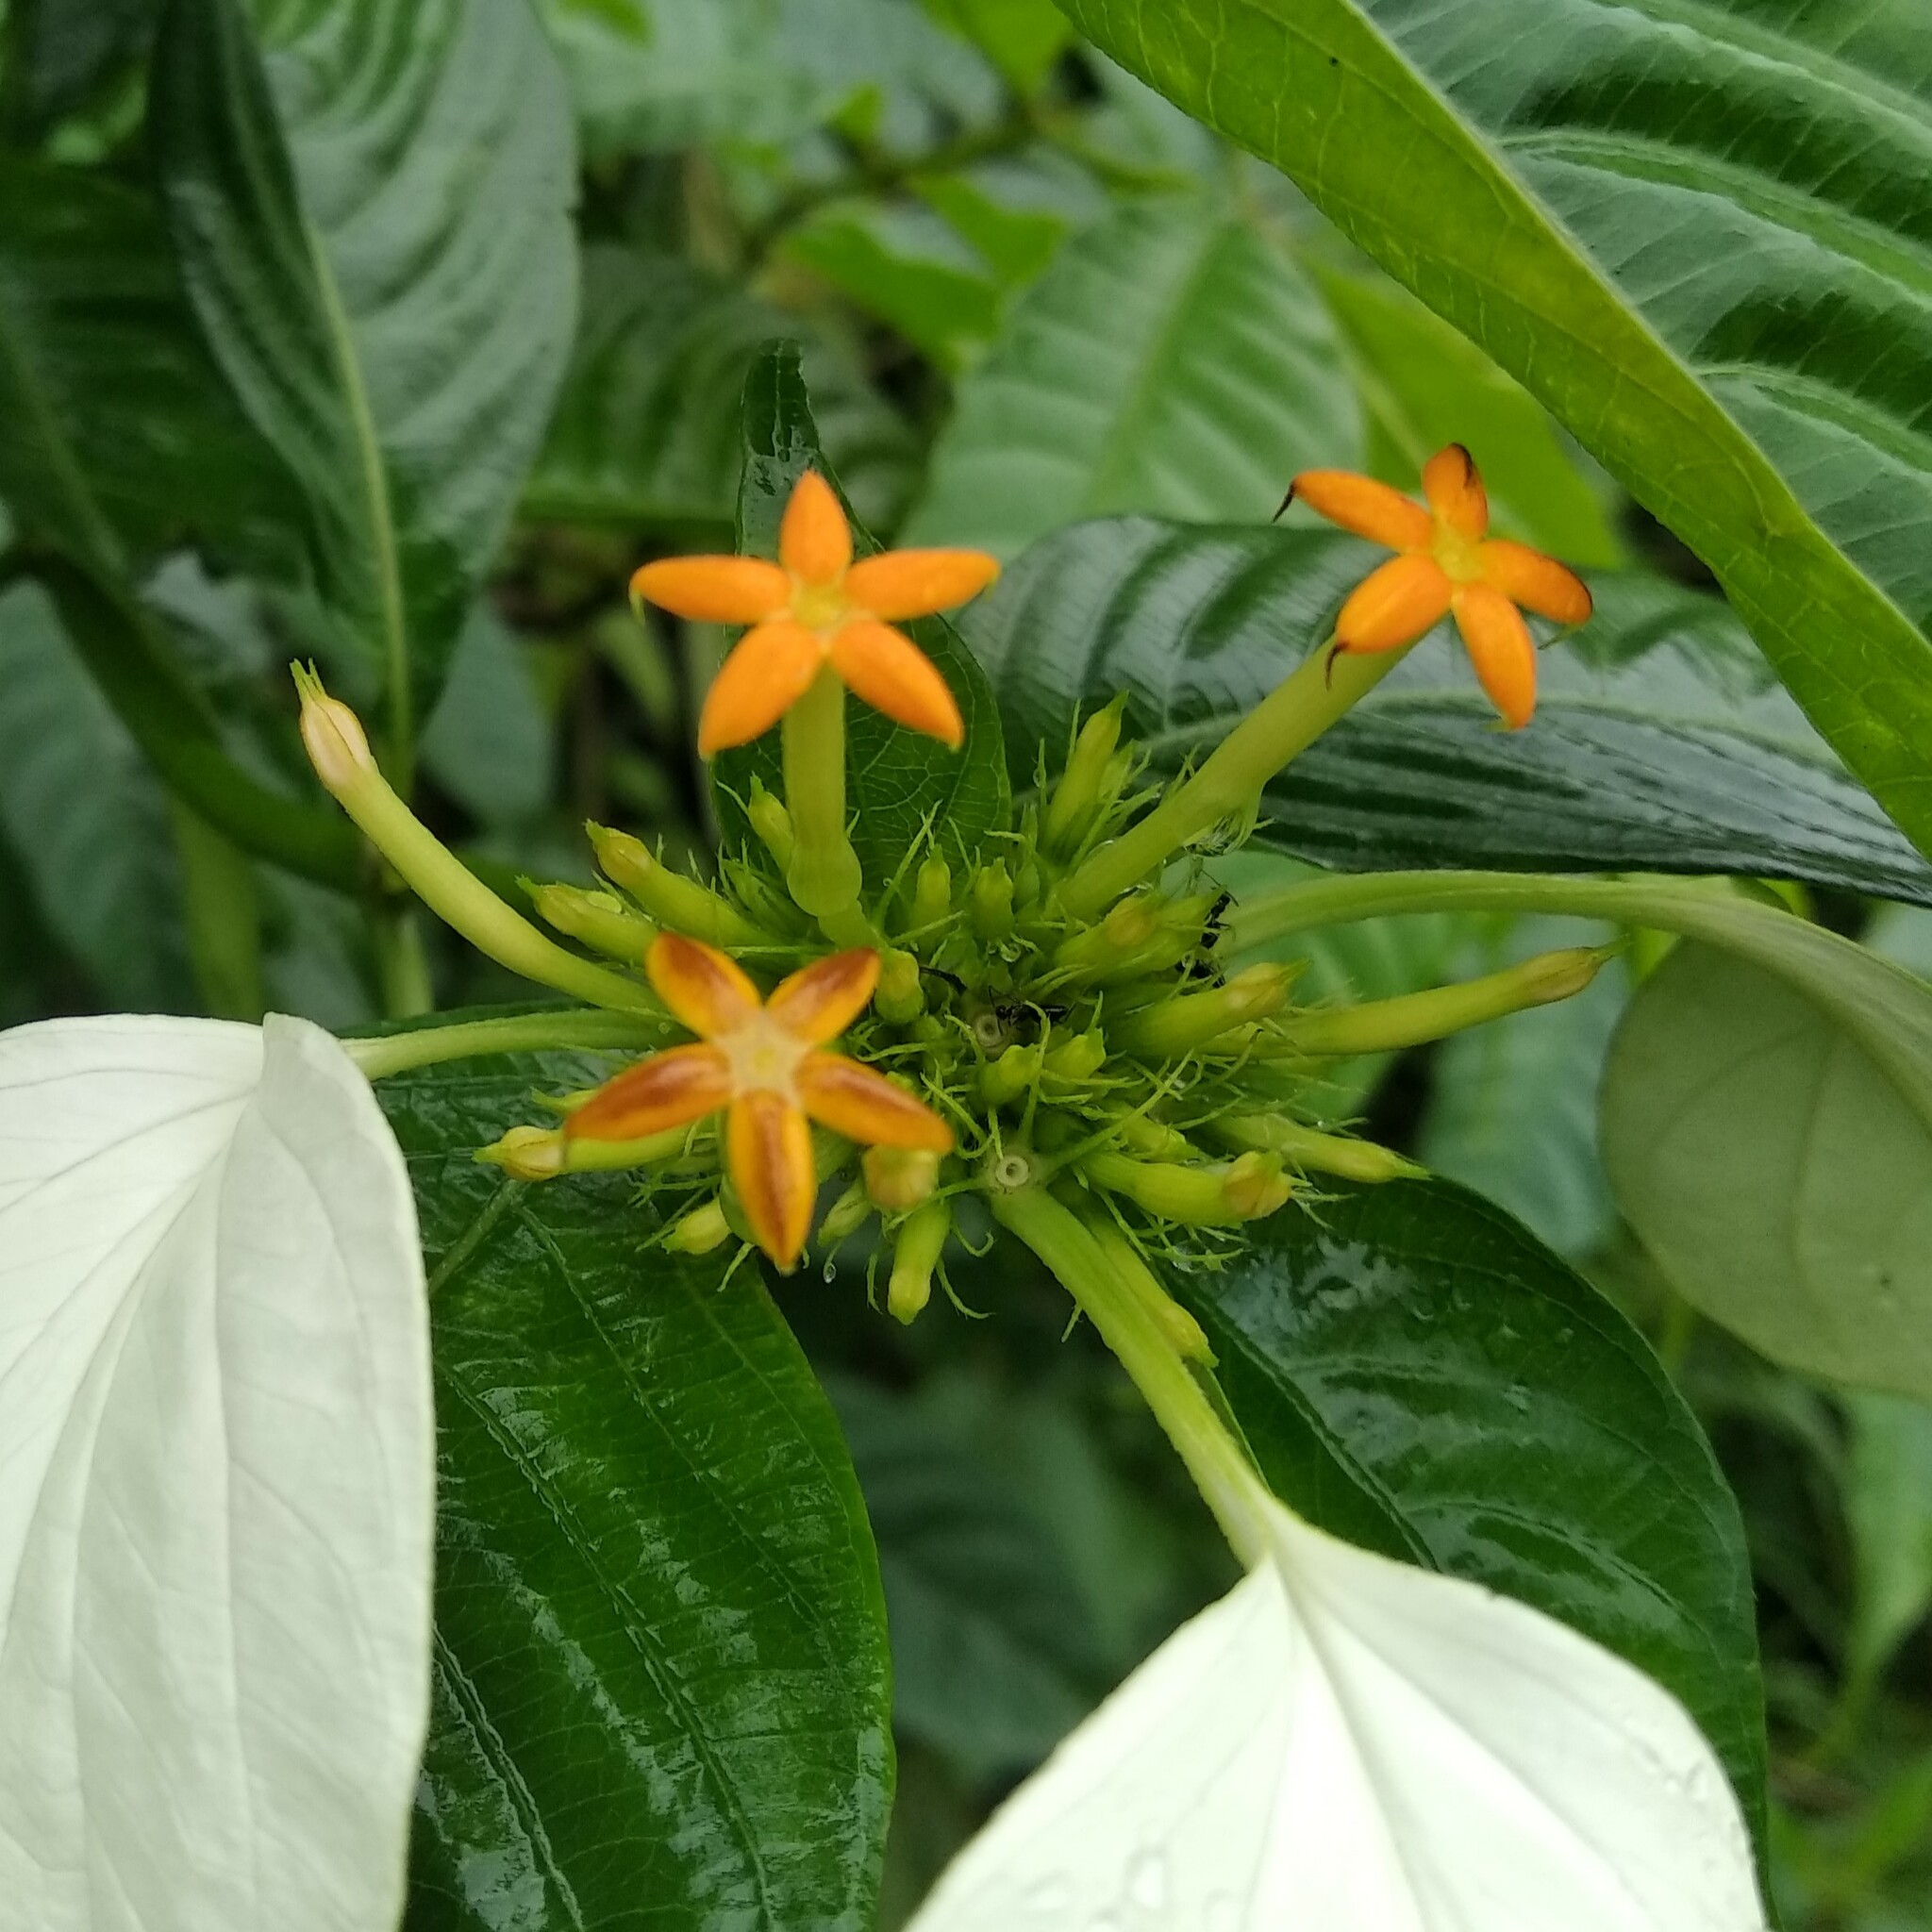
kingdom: Plantae
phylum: Tracheophyta
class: Magnoliopsida
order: Gentianales
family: Rubiaceae
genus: Mussaenda
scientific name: Mussaenda pubescens
